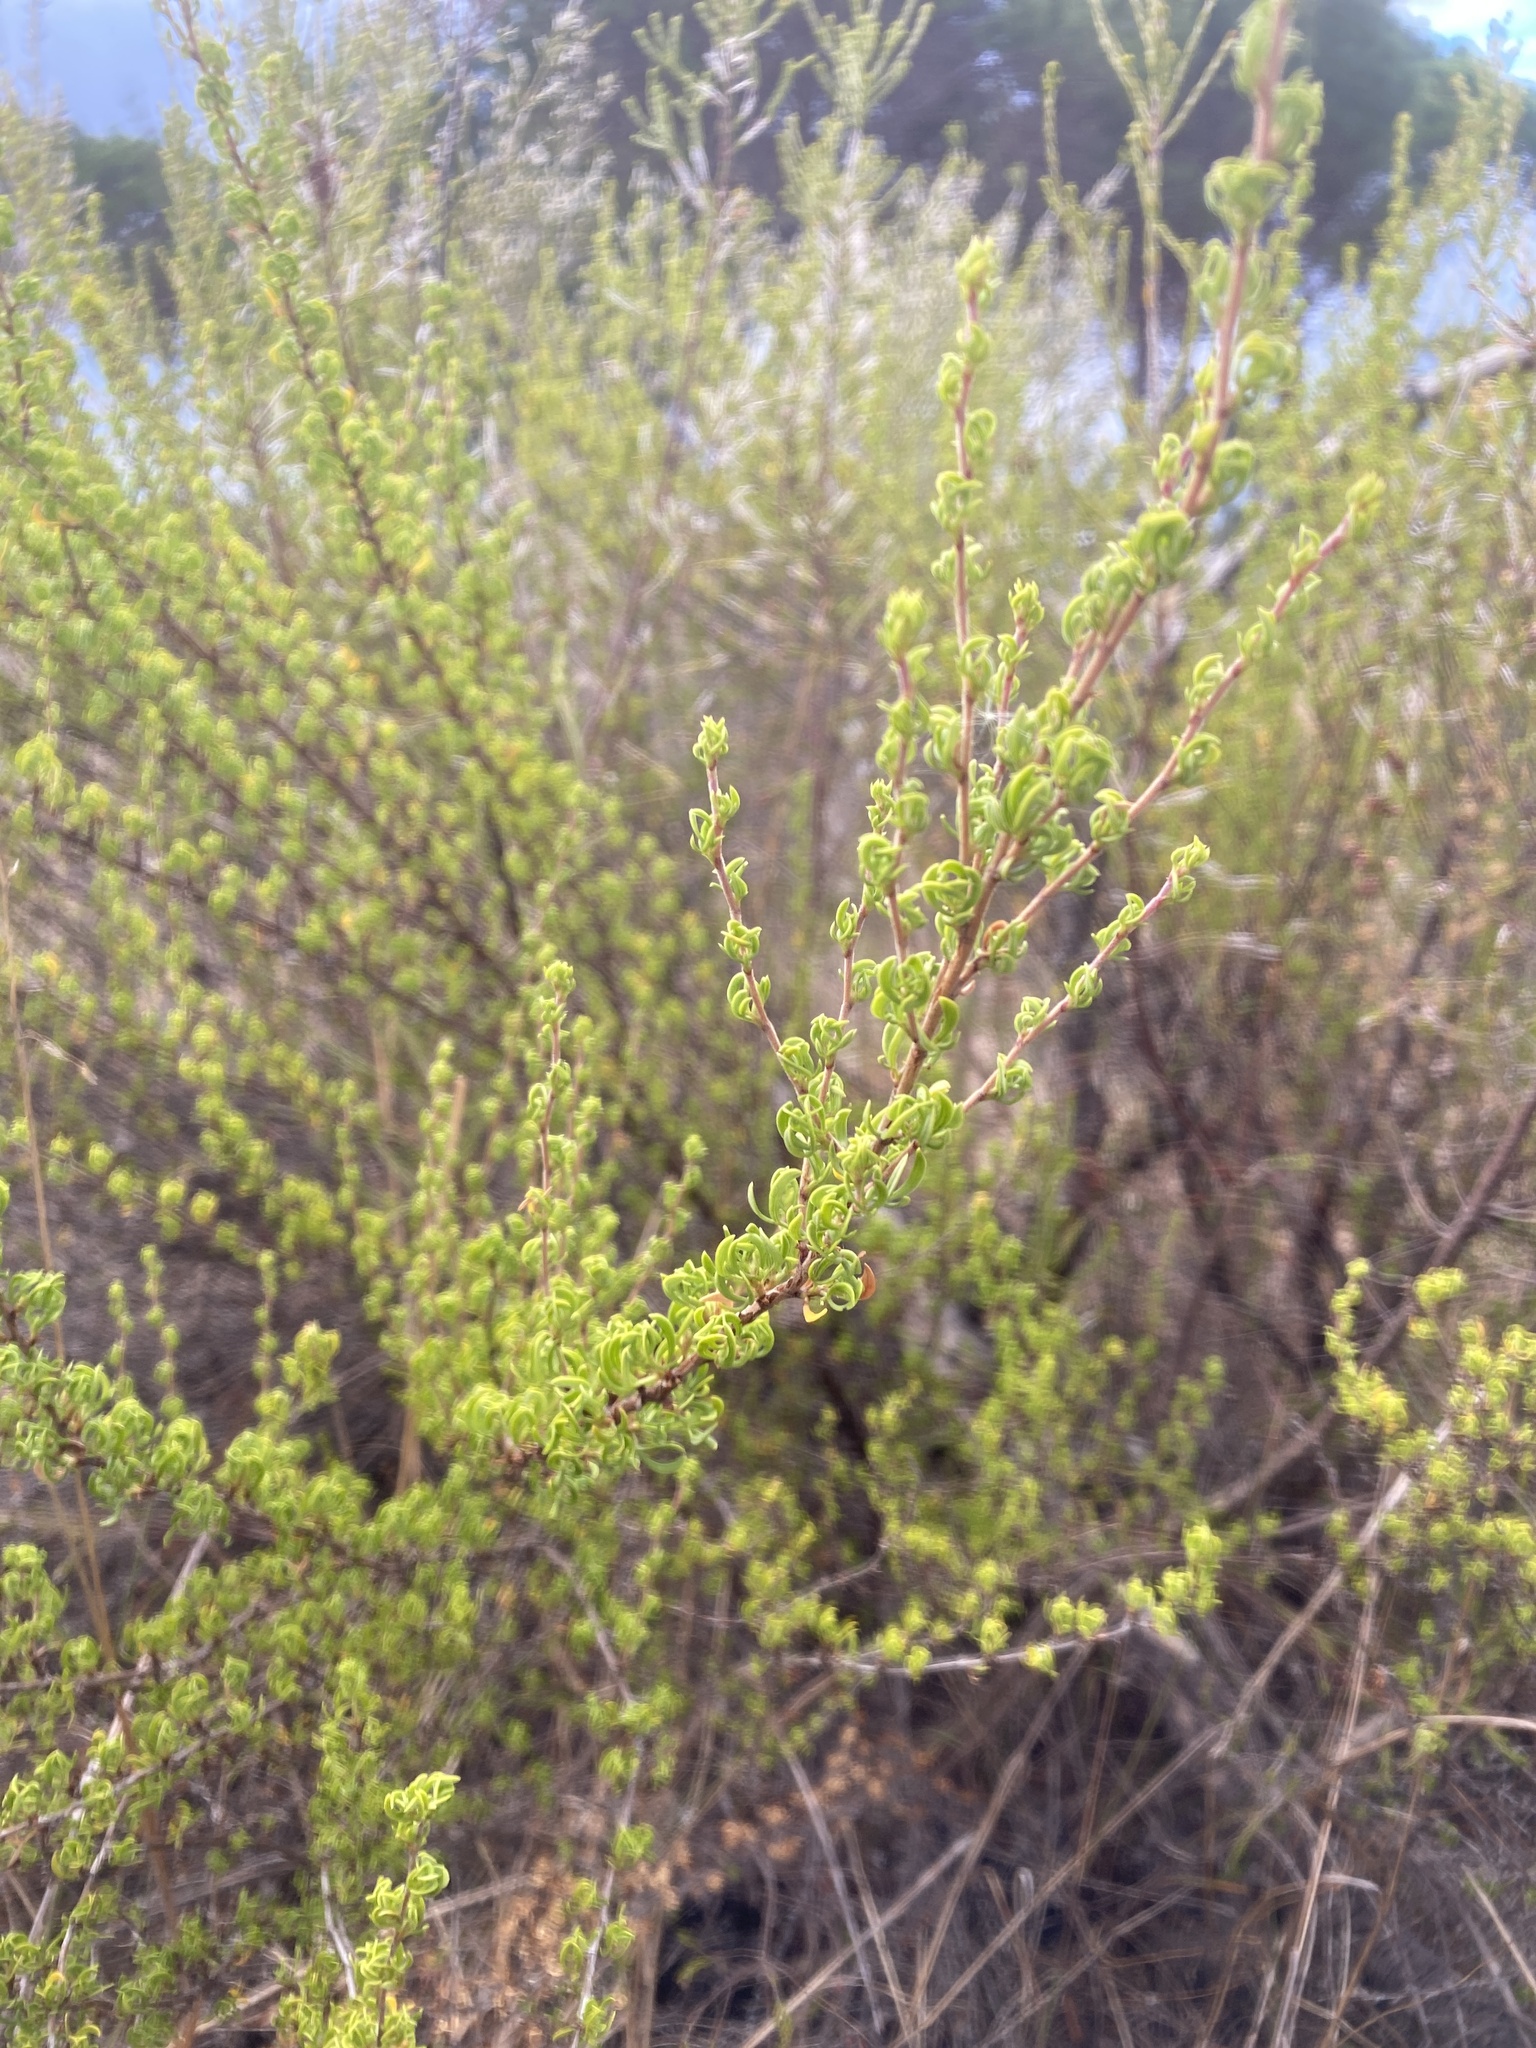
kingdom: Plantae
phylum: Tracheophyta
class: Magnoliopsida
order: Rosales
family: Rosaceae
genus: Cliffortia
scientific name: Cliffortia falcata
